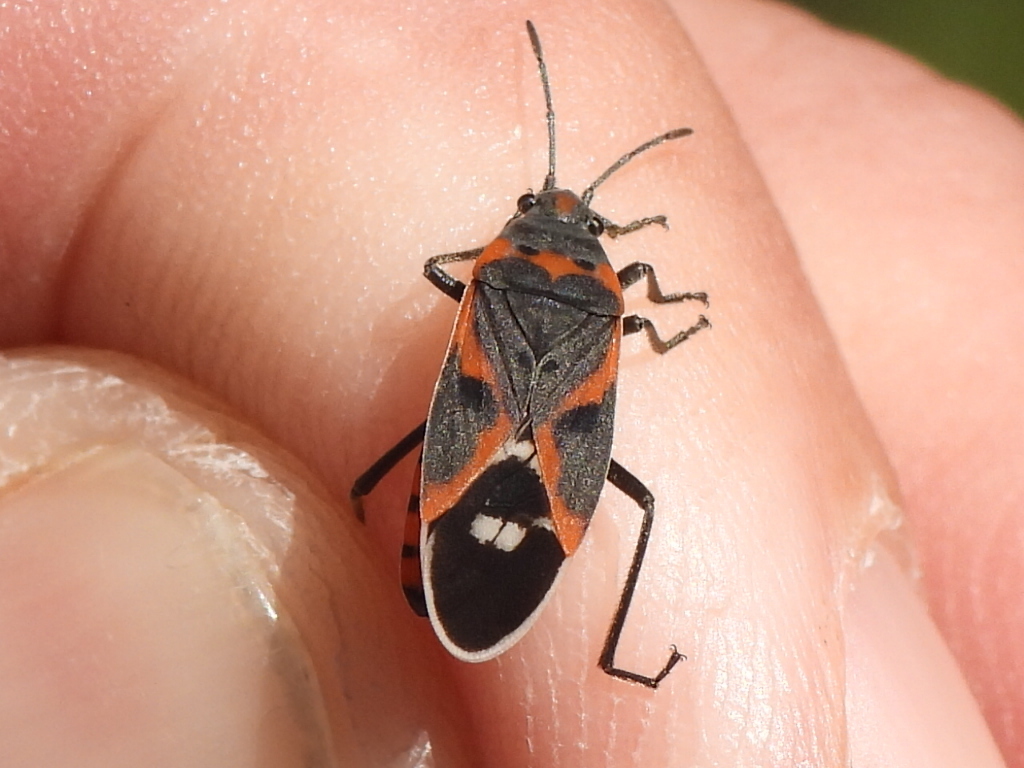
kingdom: Animalia
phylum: Arthropoda
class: Insecta
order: Hemiptera
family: Lygaeidae
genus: Lygaeus
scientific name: Lygaeus kalmii
